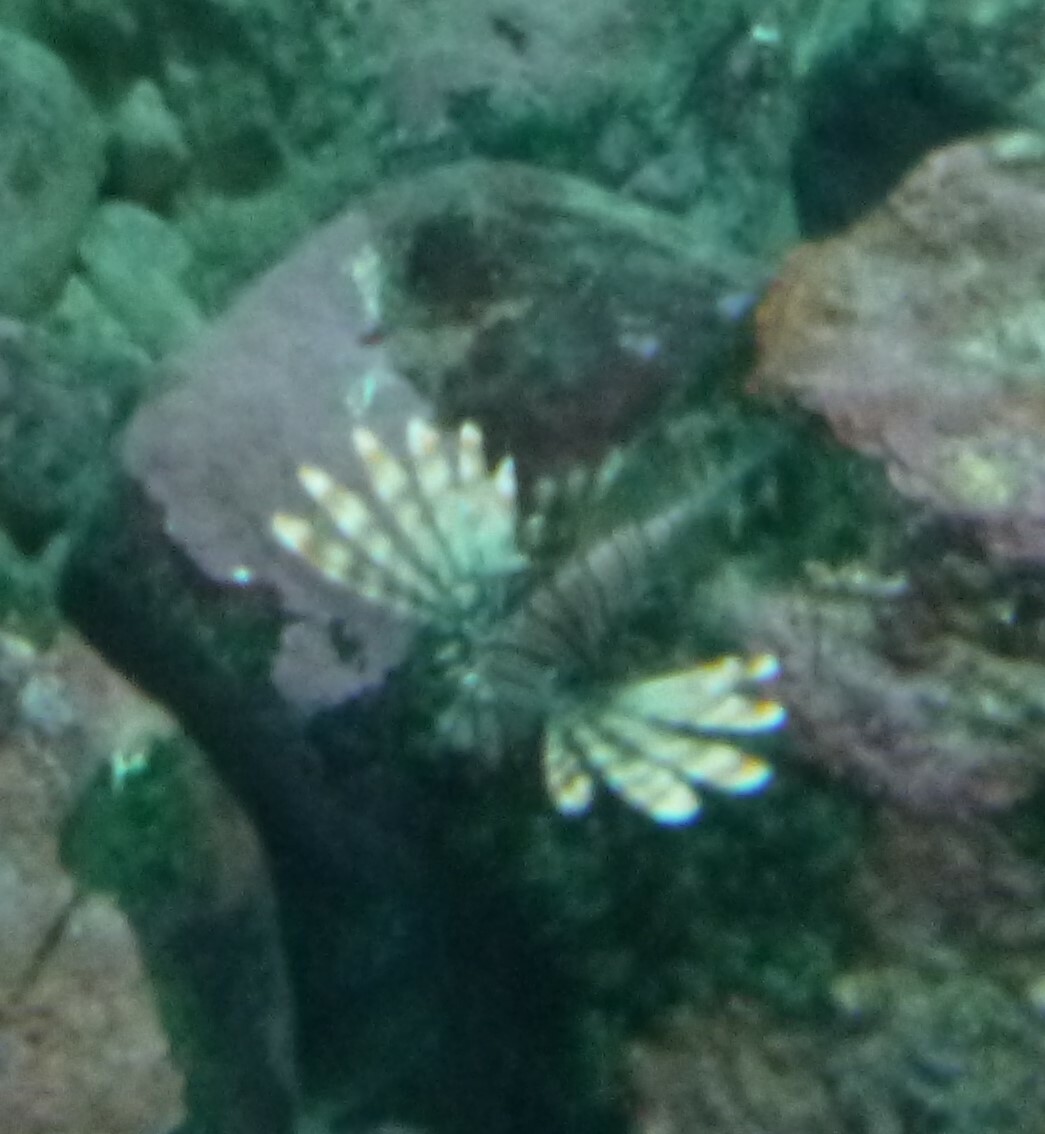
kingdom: Animalia
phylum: Chordata
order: Scorpaeniformes
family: Scorpaenidae
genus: Pterois
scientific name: Pterois miles
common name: Devil firefish
